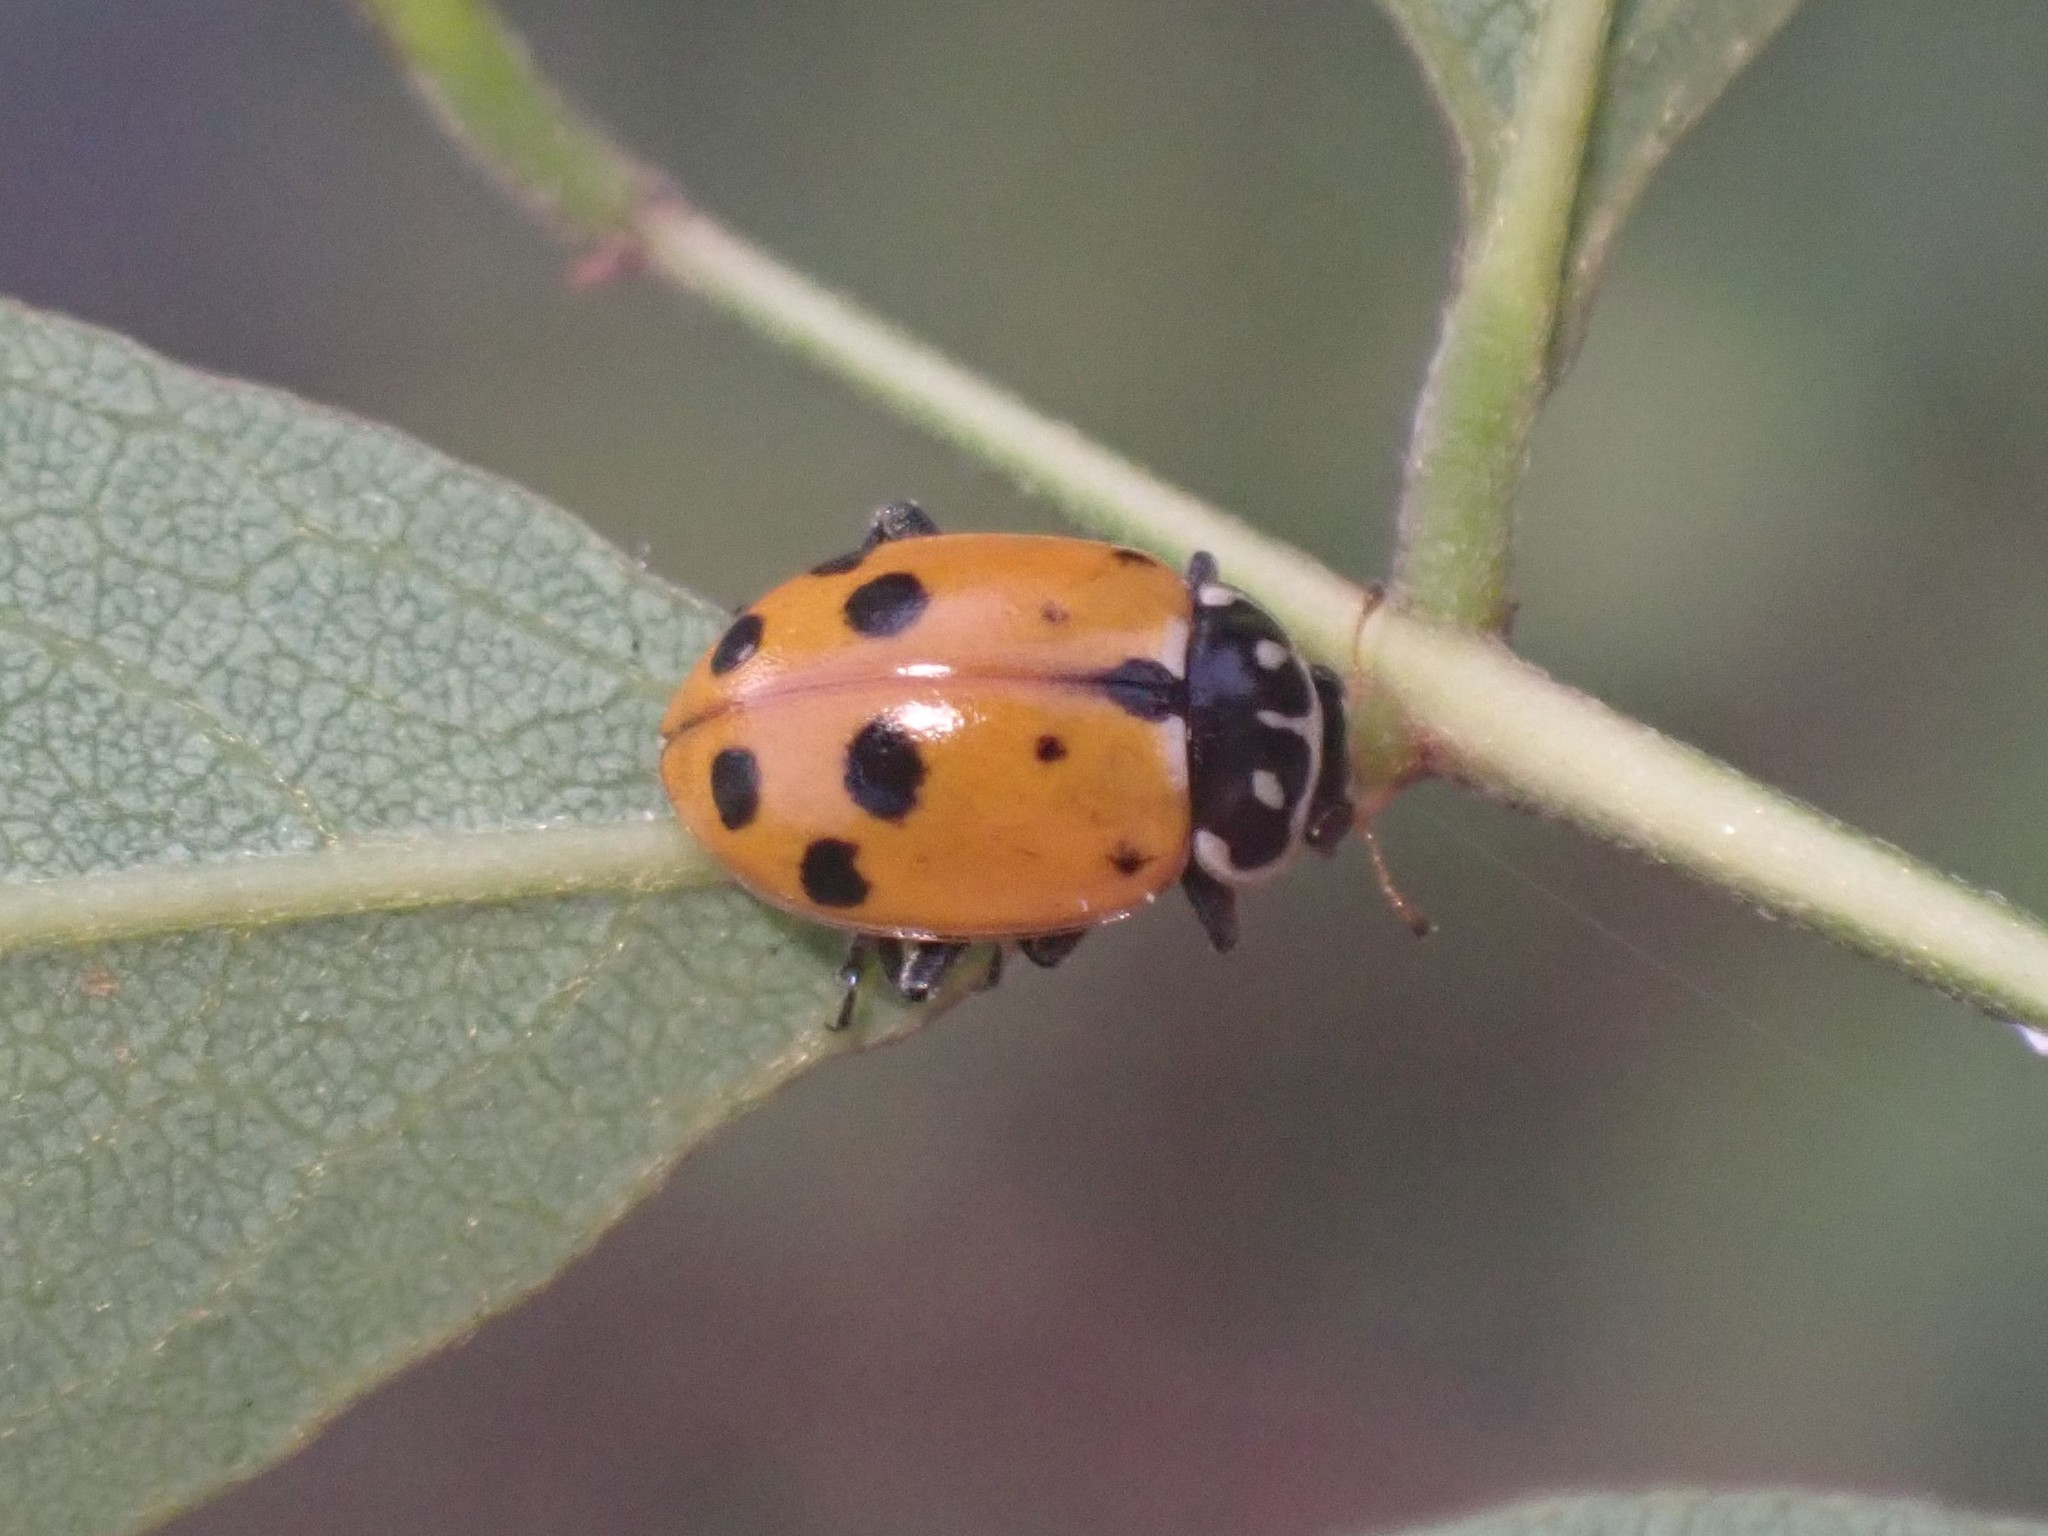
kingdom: Animalia
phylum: Arthropoda
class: Insecta
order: Coleoptera
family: Coccinellidae
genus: Hippodamia
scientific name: Hippodamia variegata
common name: Ladybird beetle
